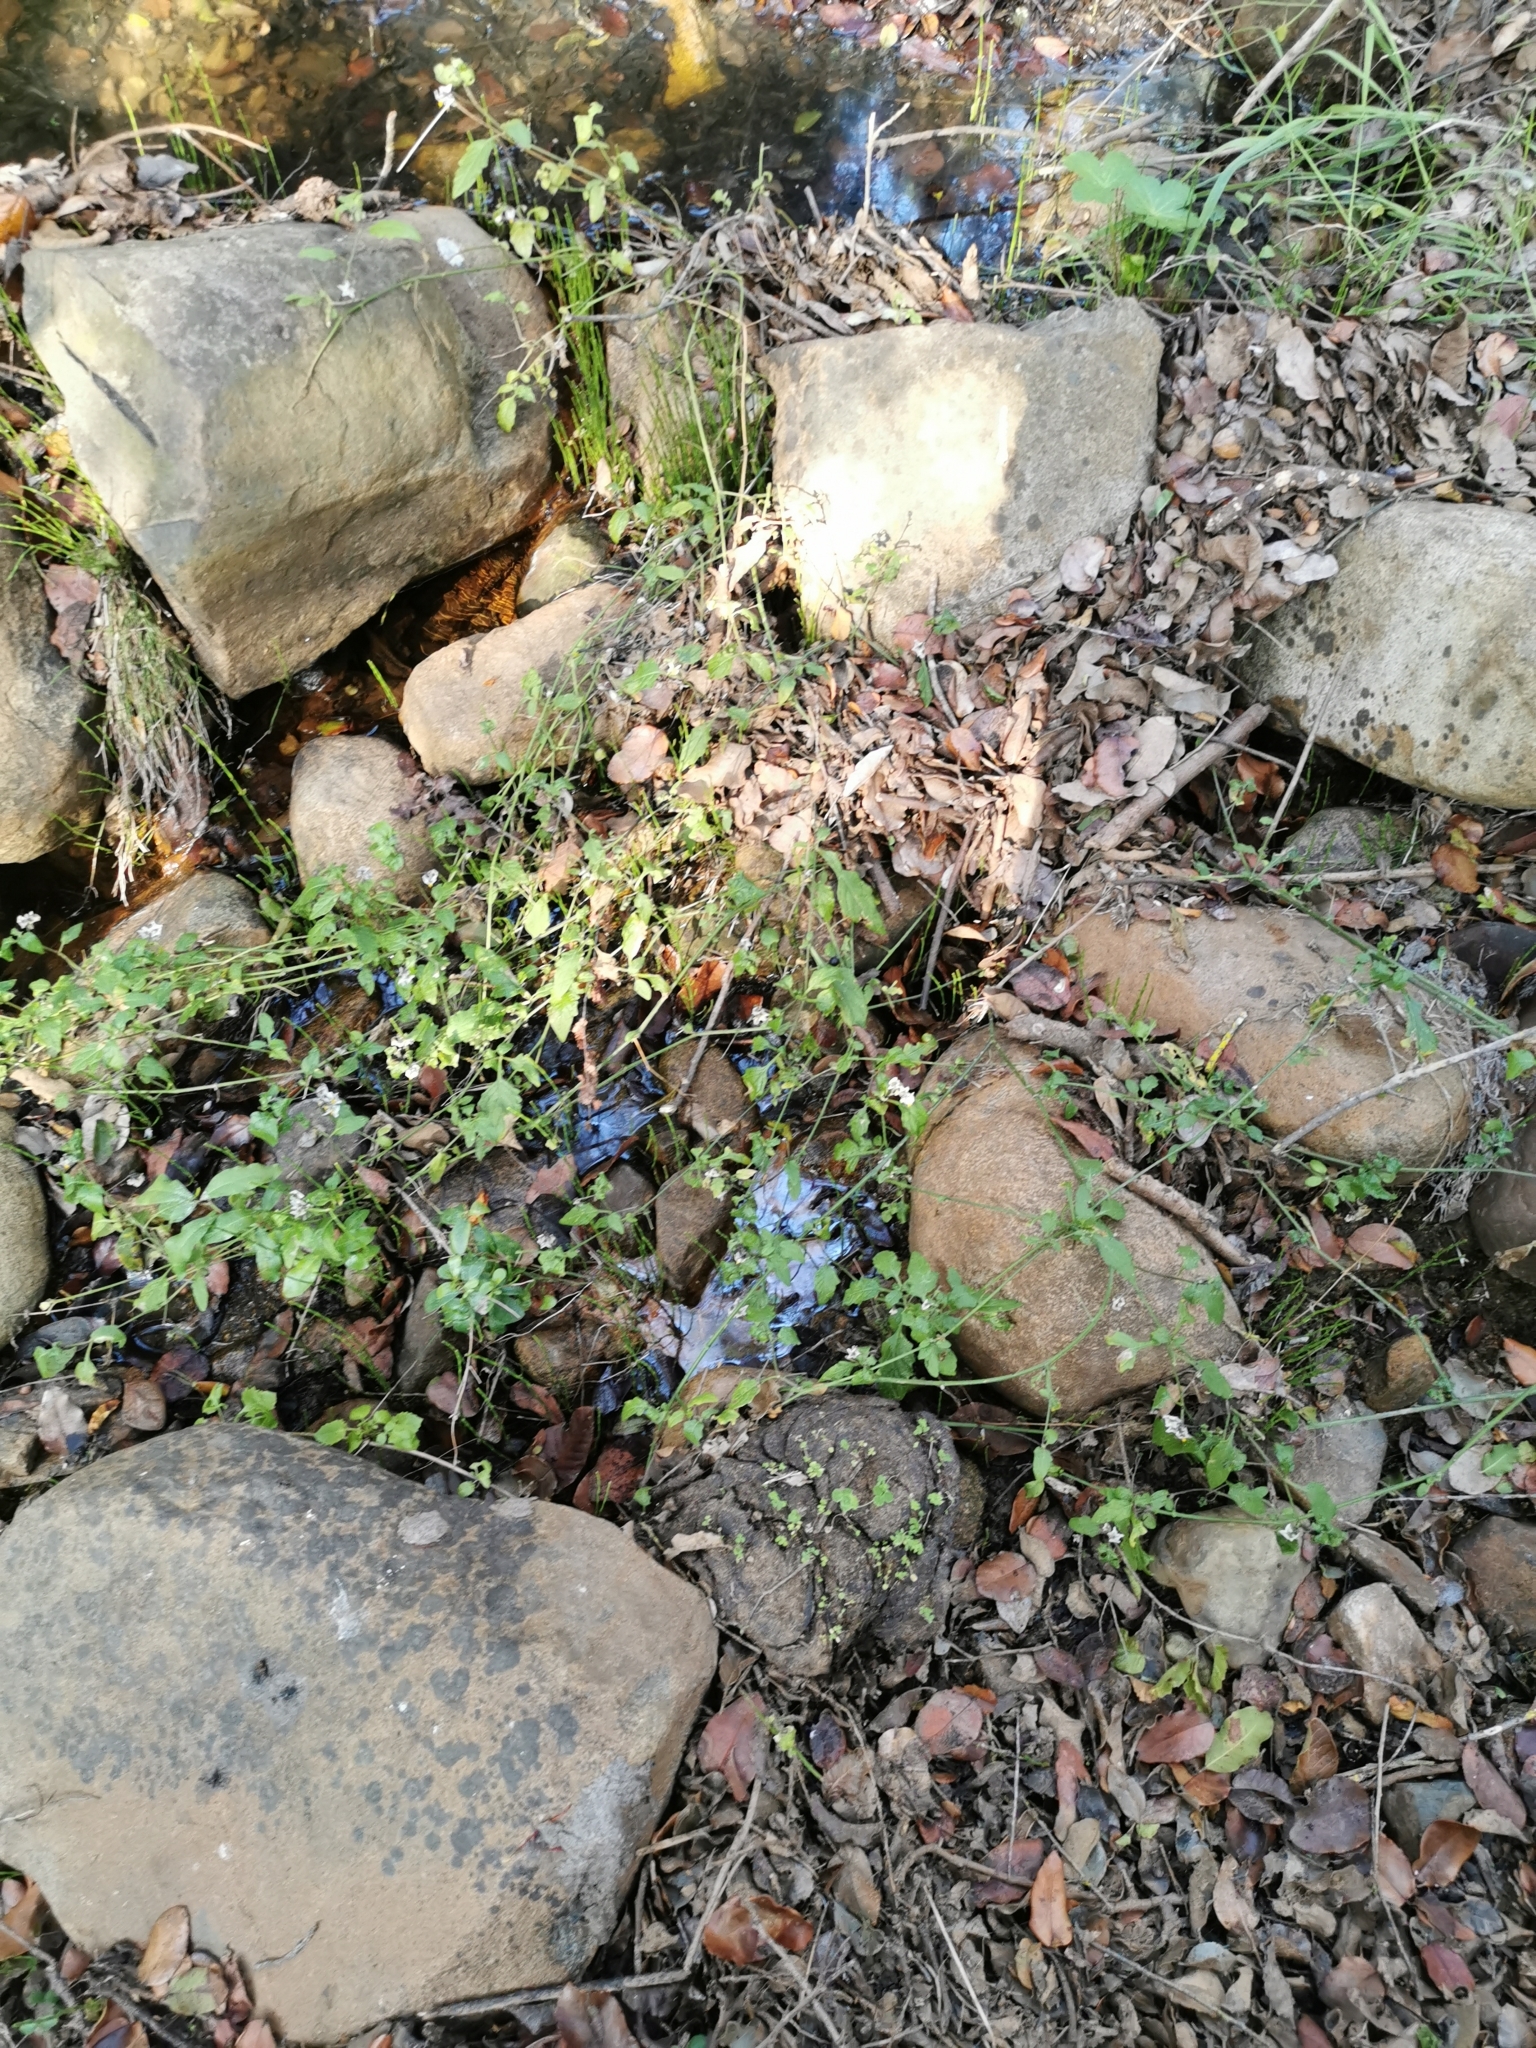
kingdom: Plantae
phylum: Tracheophyta
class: Magnoliopsida
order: Solanales
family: Solanaceae
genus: Solanum
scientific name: Solanum furcatum
